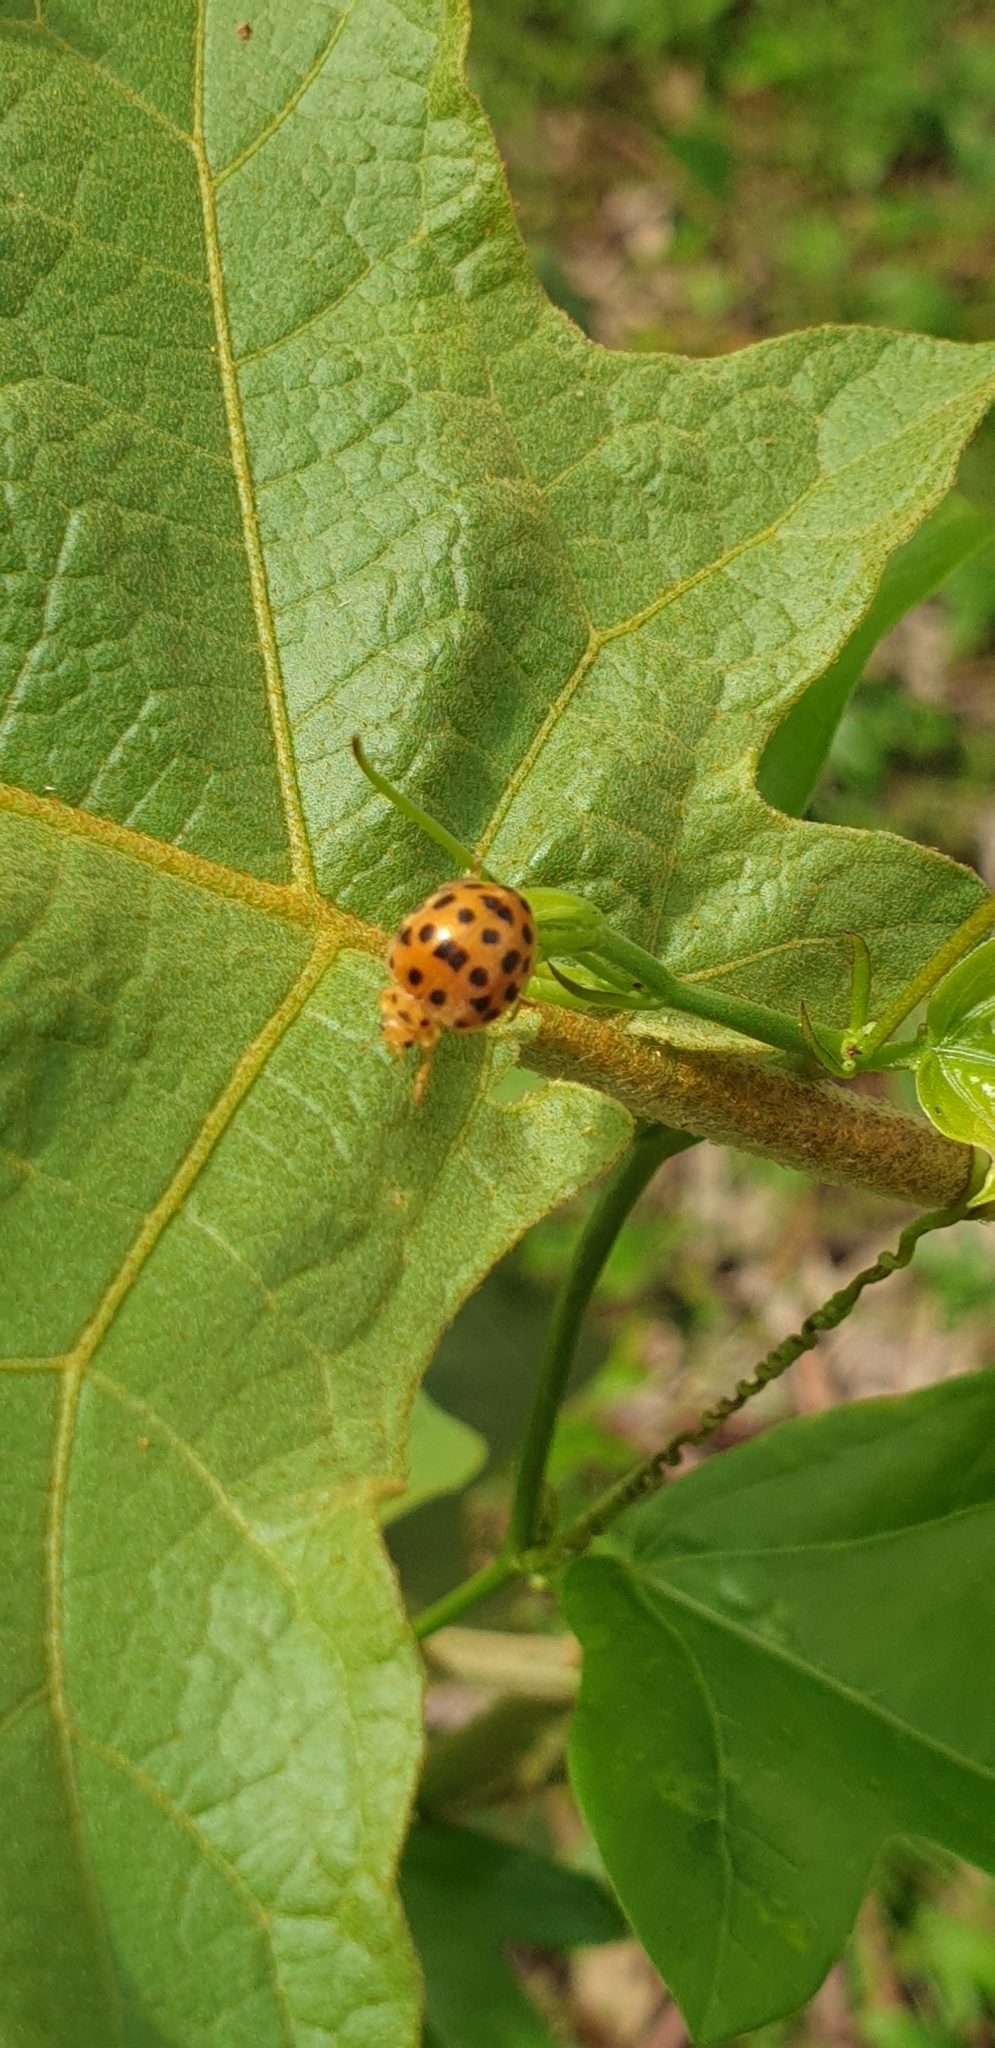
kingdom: Animalia
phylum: Arthropoda
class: Insecta
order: Coleoptera
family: Coccinellidae
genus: Henosepilachna
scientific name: Henosepilachna vigintioctopunctata
